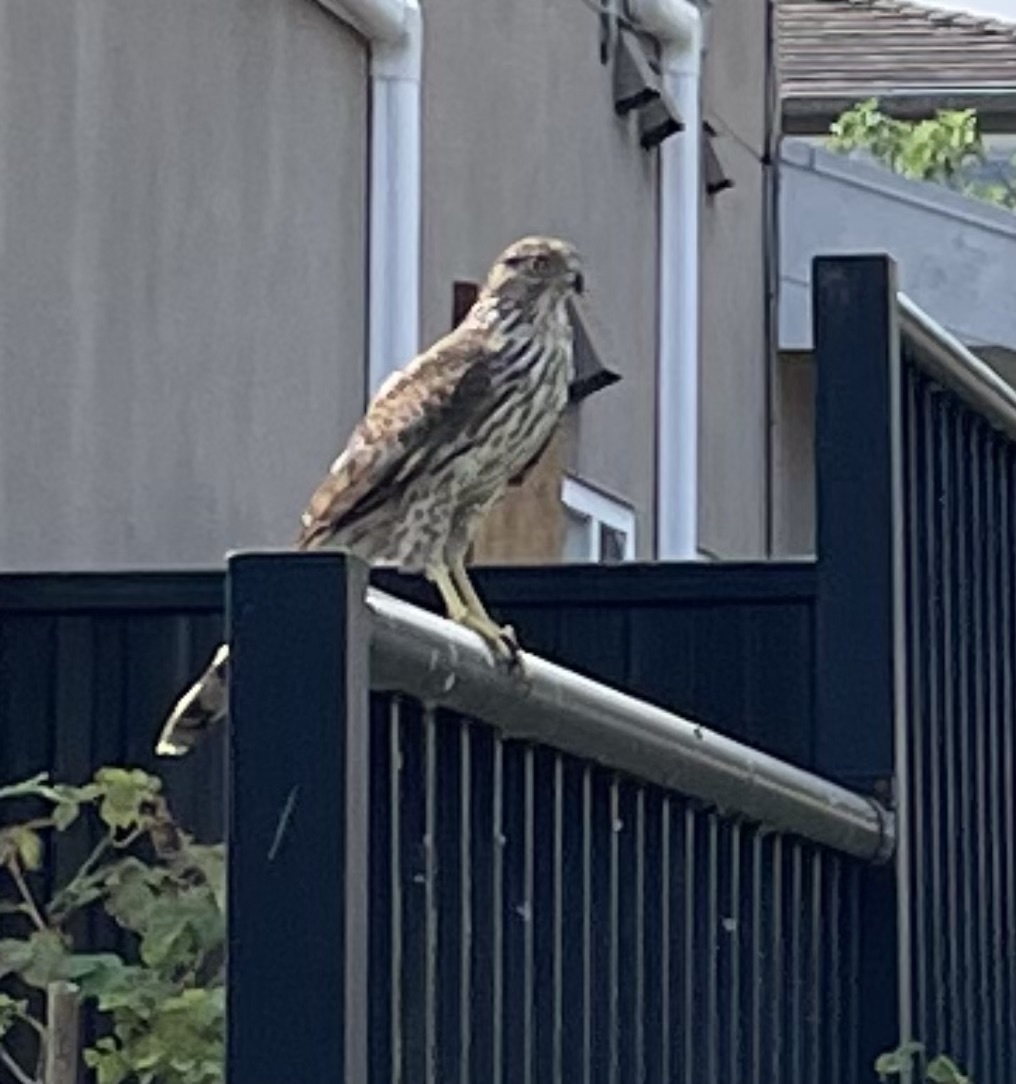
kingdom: Animalia
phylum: Chordata
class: Aves
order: Accipitriformes
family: Accipitridae
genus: Accipiter
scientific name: Accipiter cooperii
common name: Cooper's hawk
